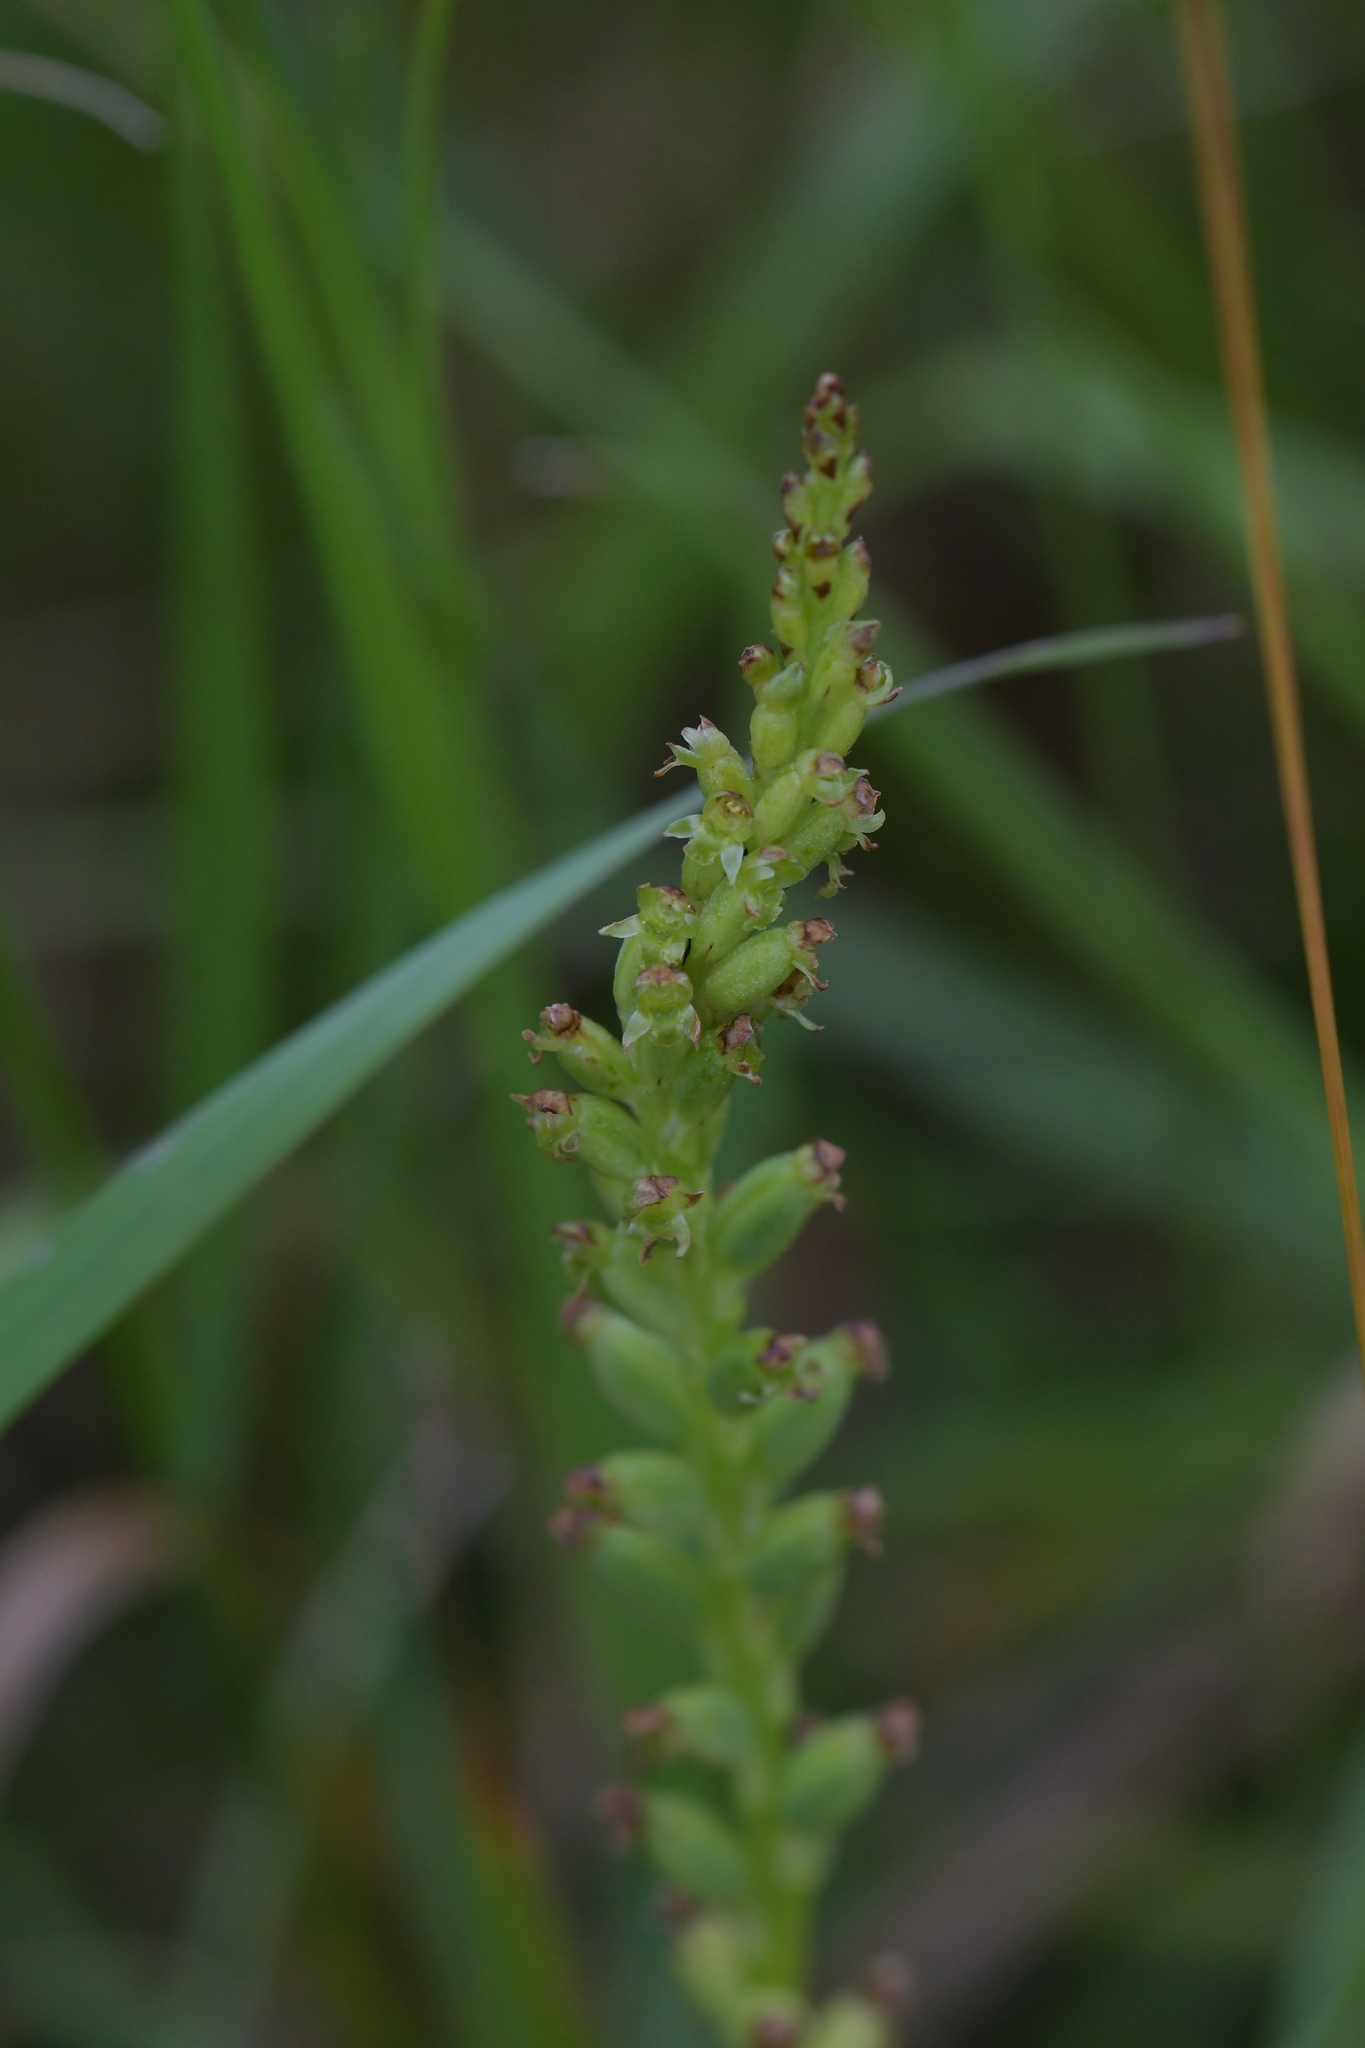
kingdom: Plantae
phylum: Tracheophyta
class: Liliopsida
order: Asparagales
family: Orchidaceae
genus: Microtis
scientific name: Microtis unifolia
